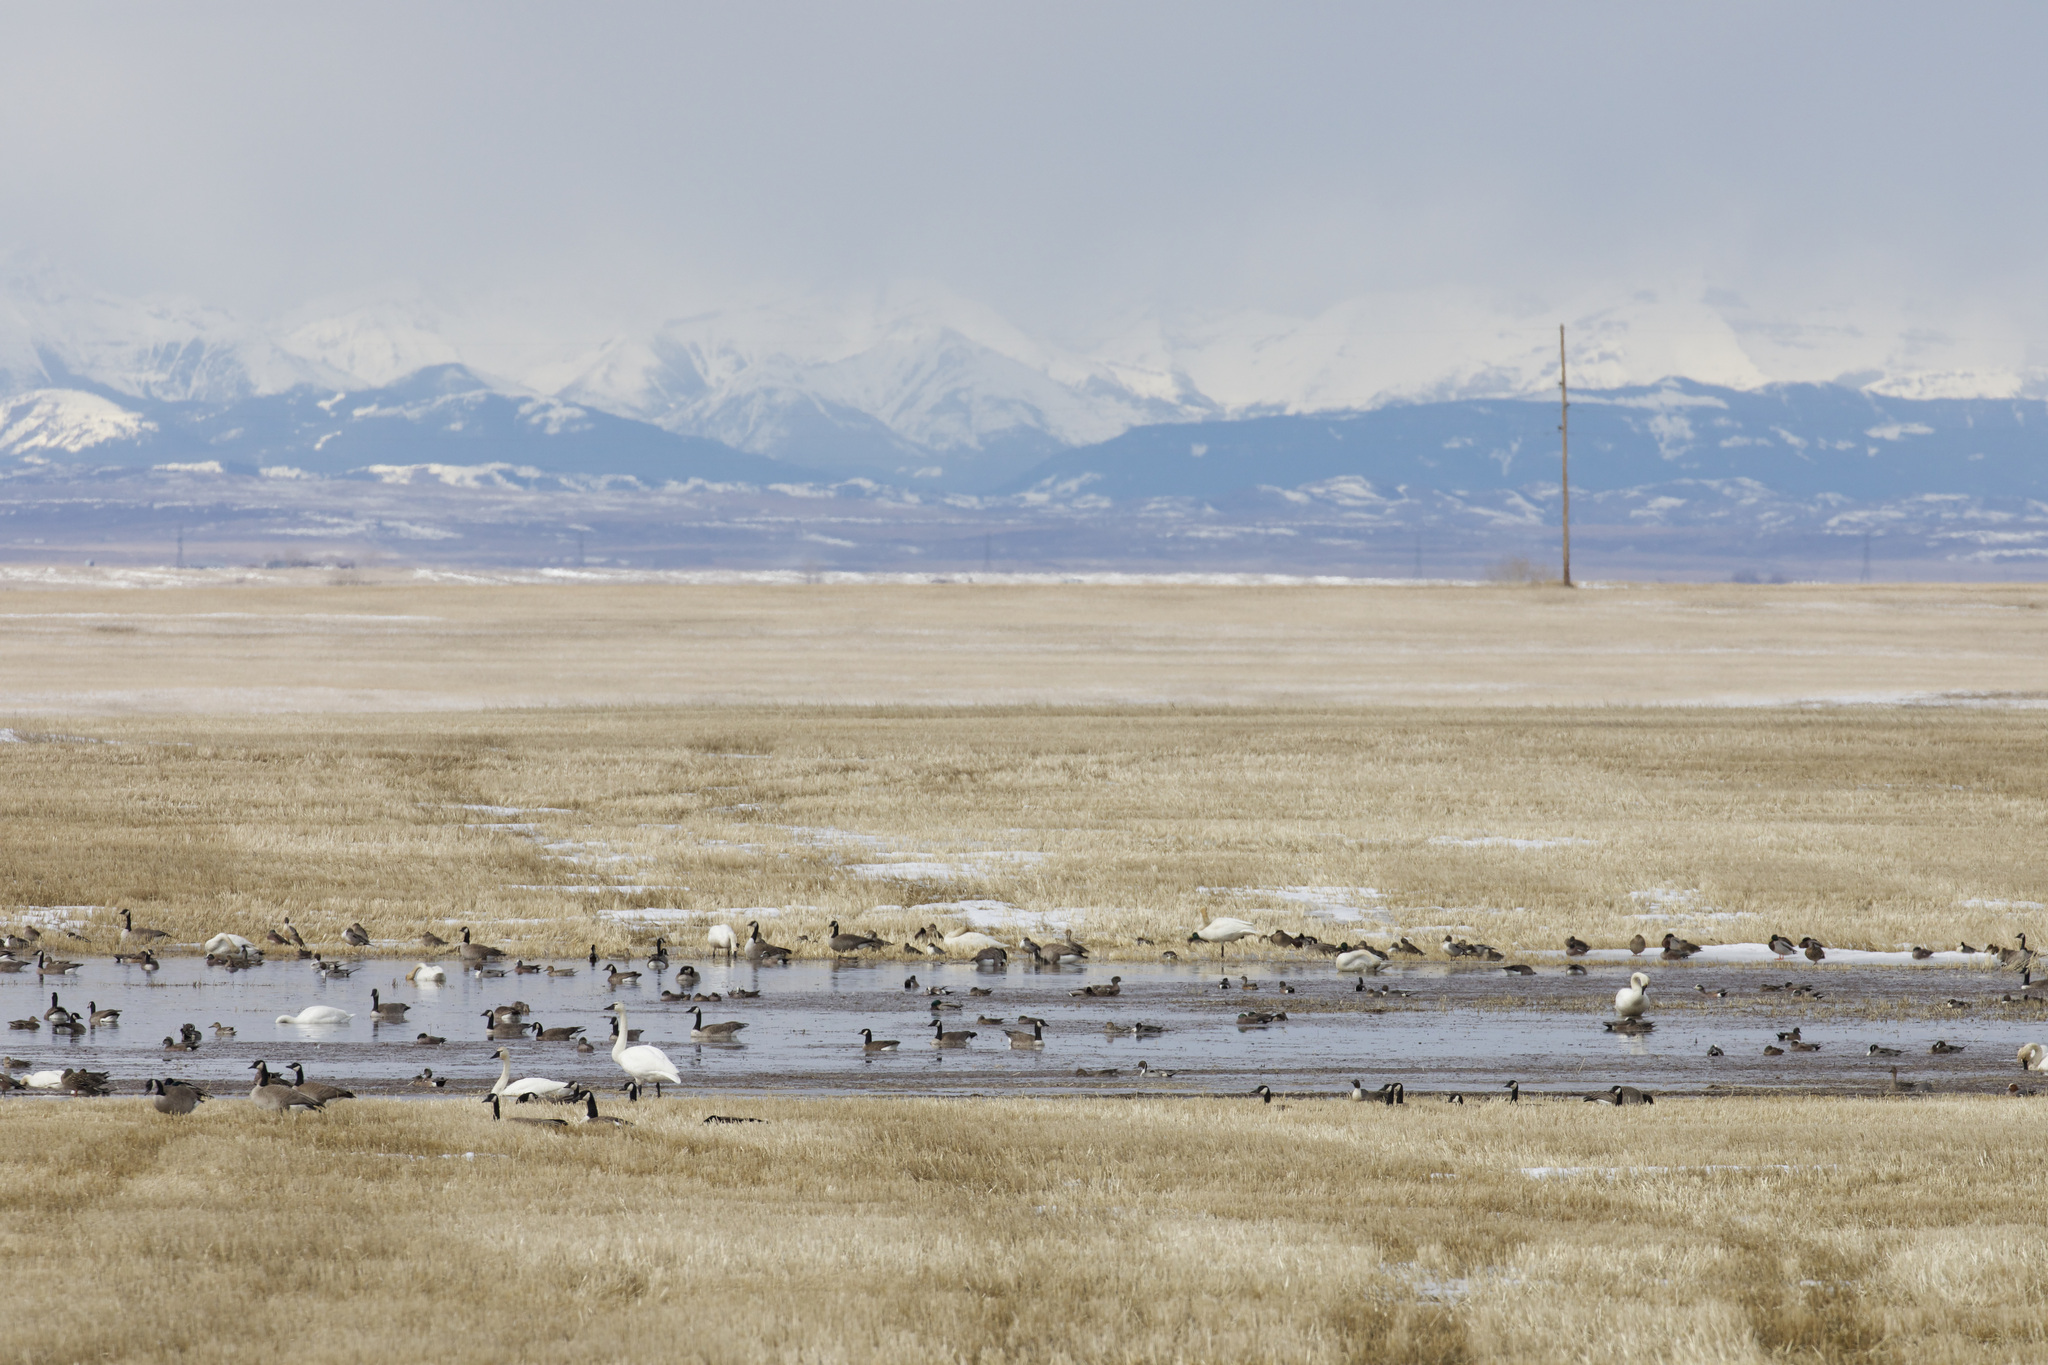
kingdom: Animalia
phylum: Chordata
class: Aves
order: Anseriformes
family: Anatidae
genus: Cygnus
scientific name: Cygnus columbianus
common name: Tundra swan
